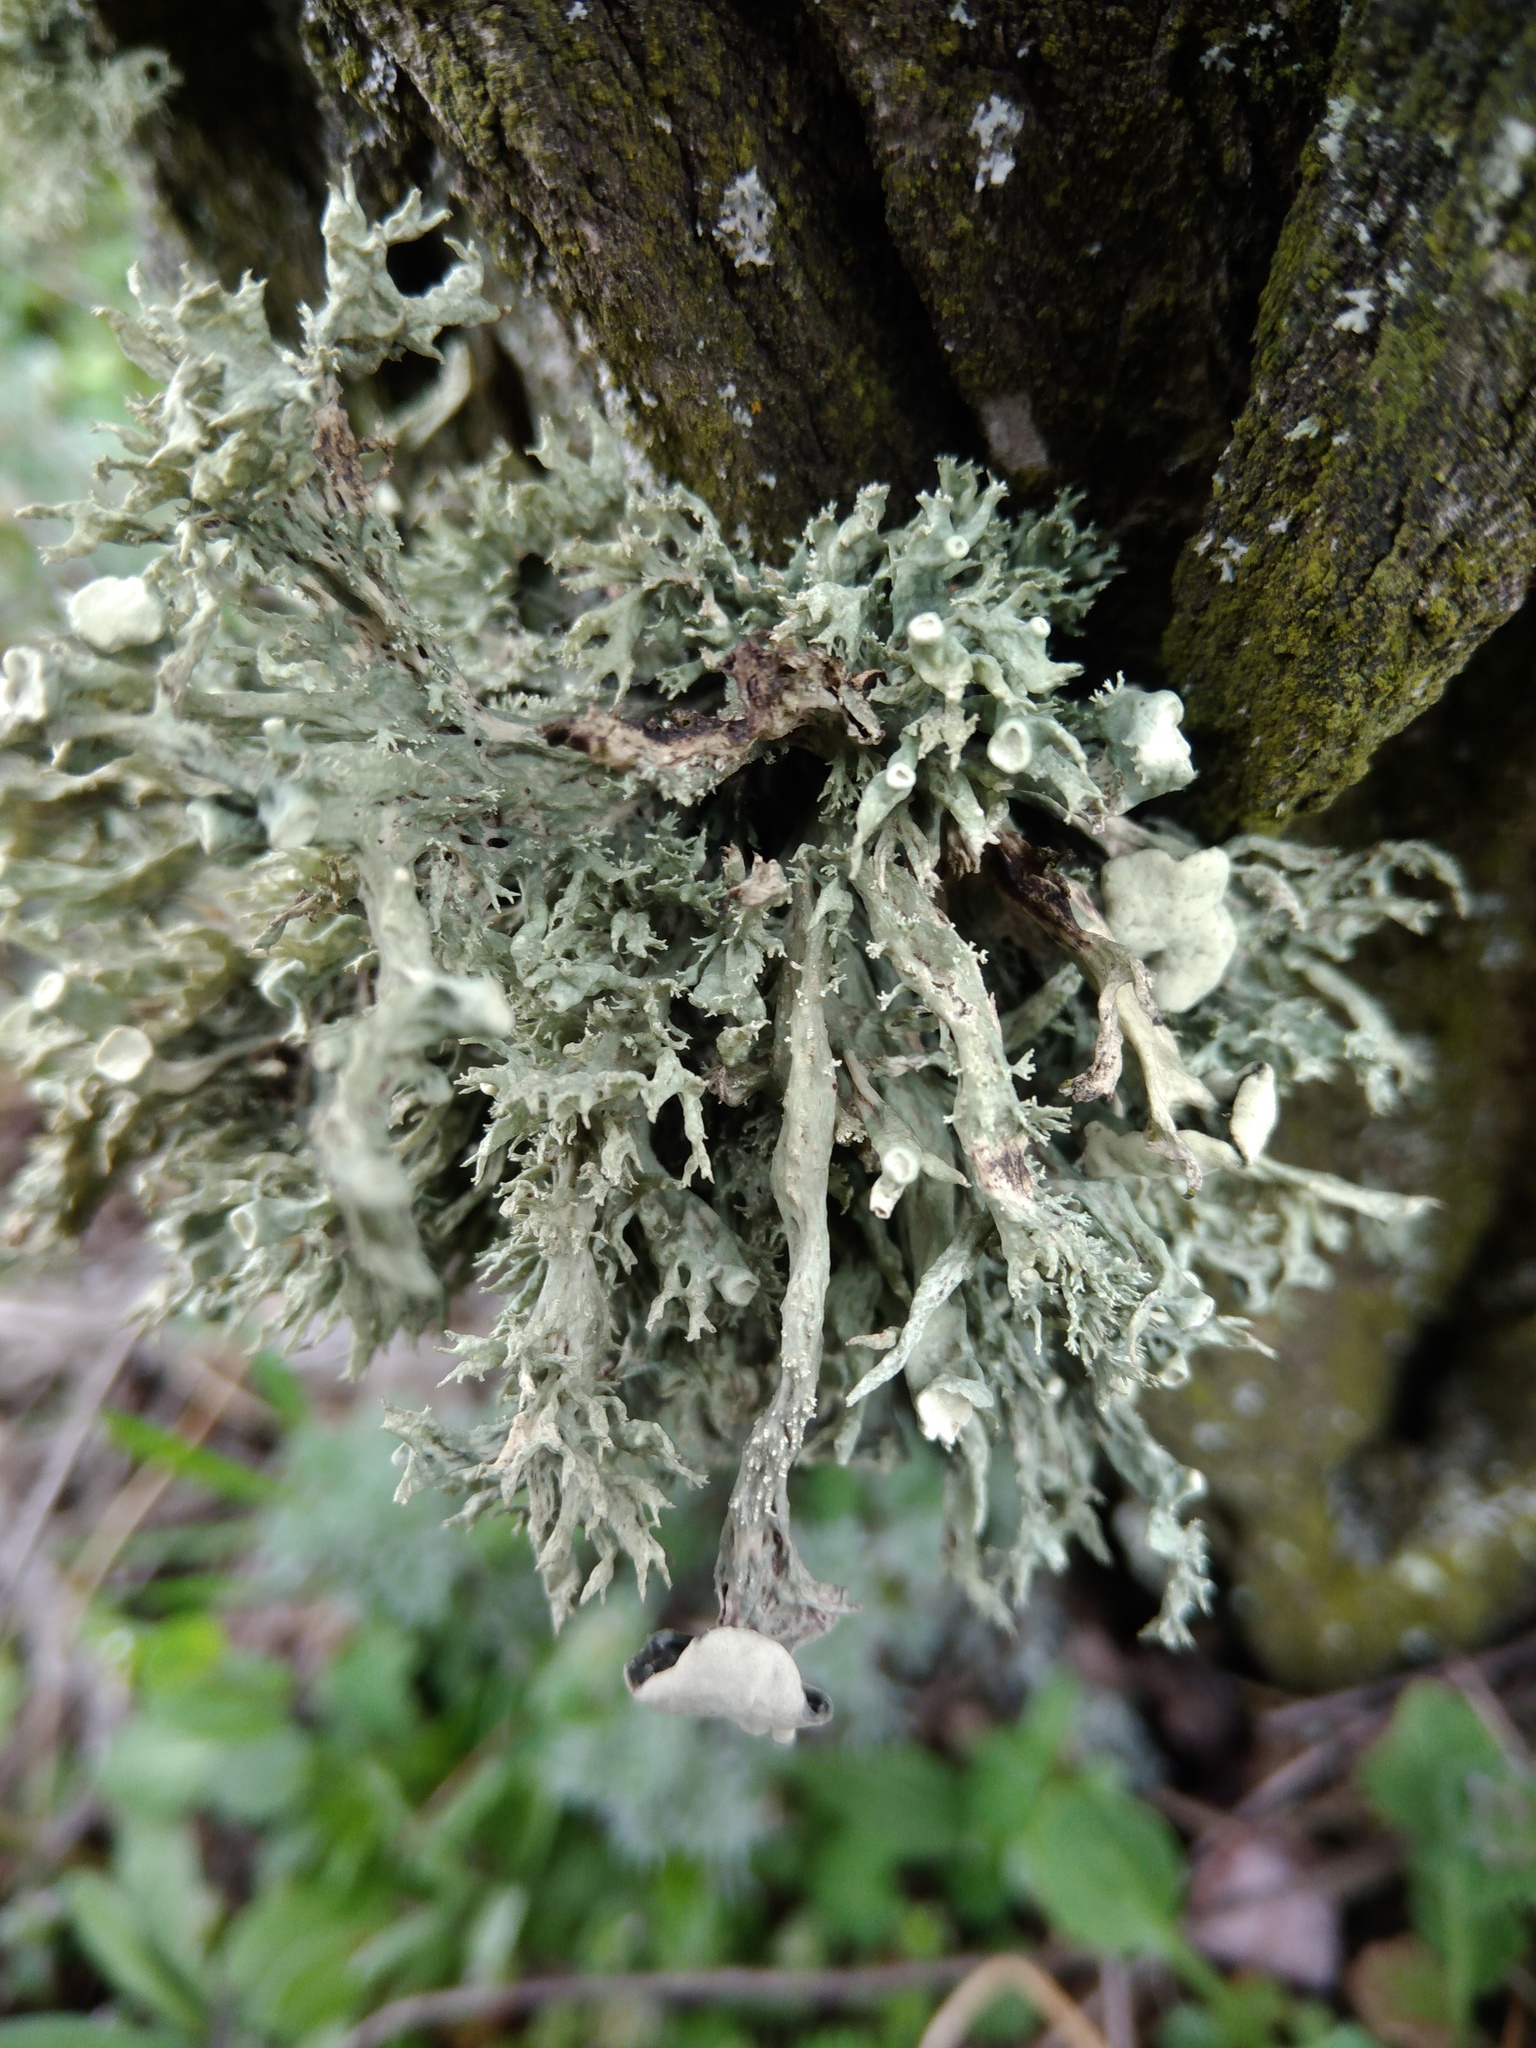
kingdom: Fungi
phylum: Ascomycota
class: Lecanoromycetes
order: Lecanorales
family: Ramalinaceae
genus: Ramalina
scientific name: Ramalina fastigiata
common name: Dotted ribbon lichen
